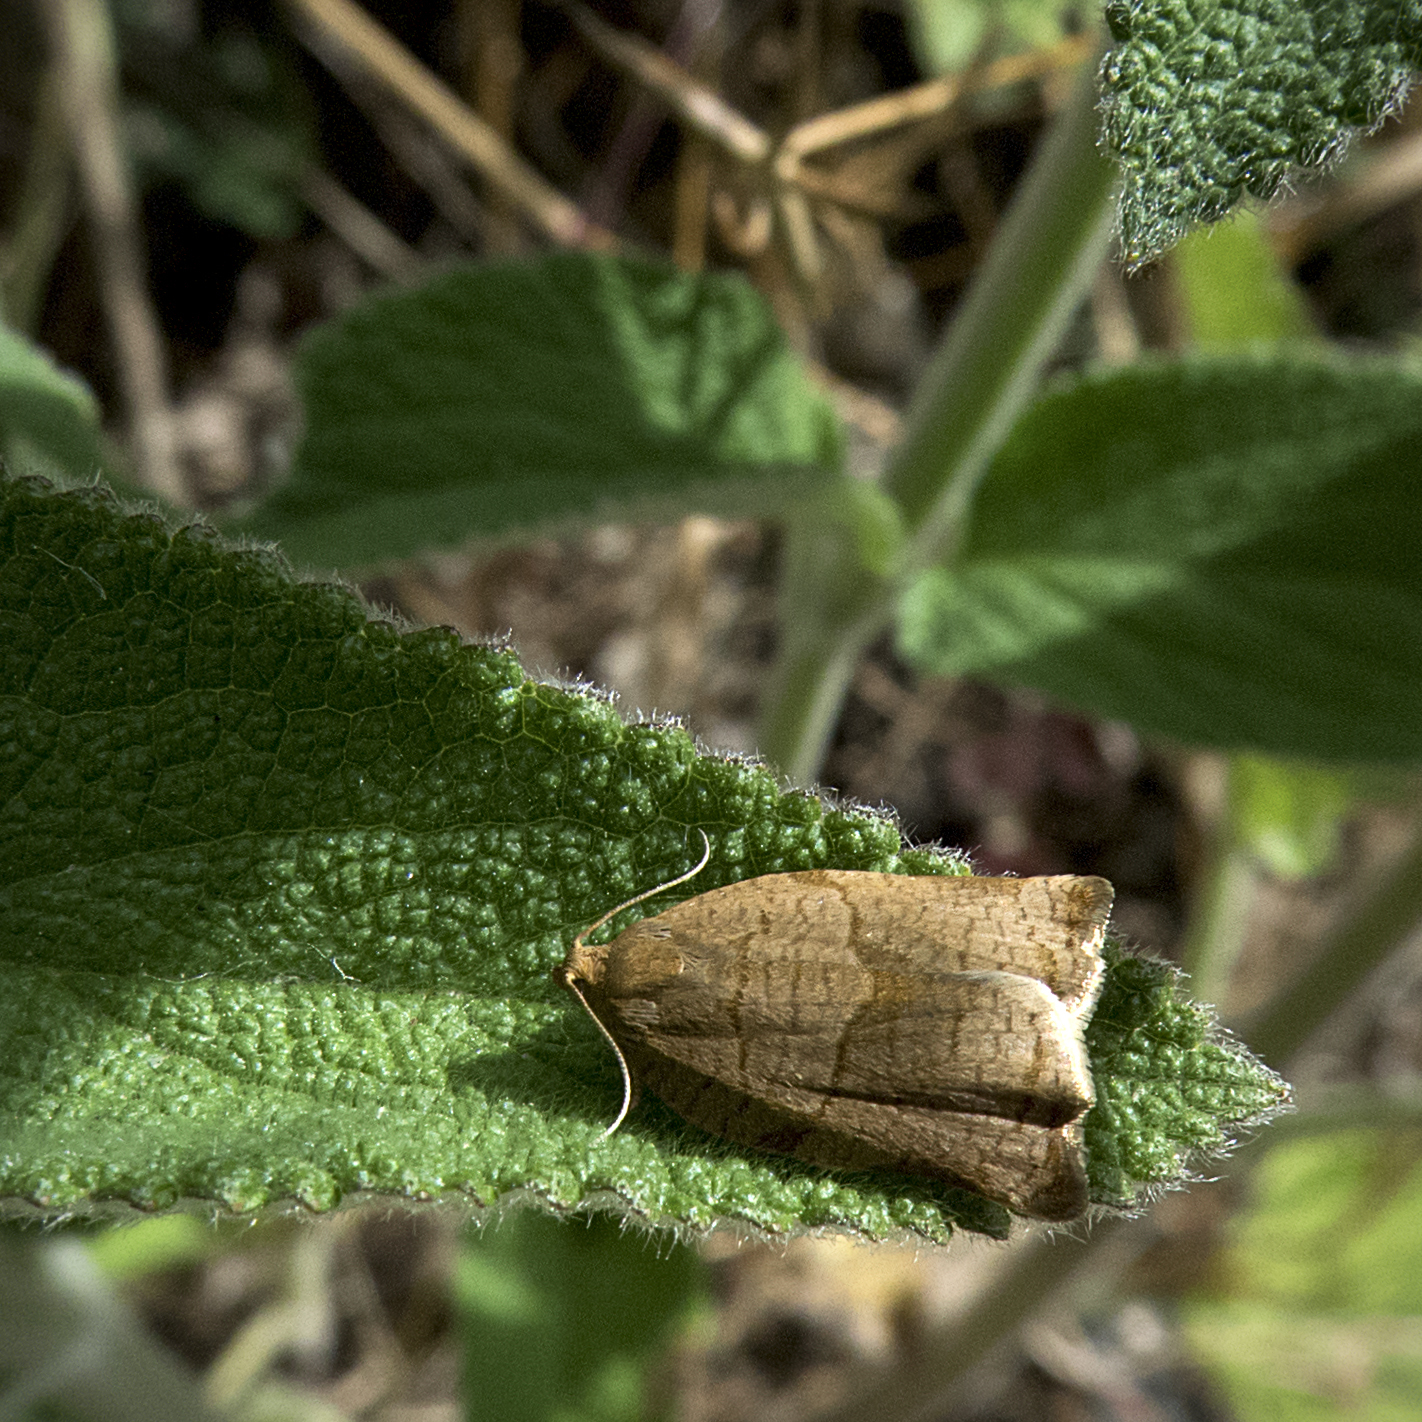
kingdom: Animalia
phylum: Arthropoda
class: Insecta
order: Lepidoptera
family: Tortricidae
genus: Archips
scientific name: Archips podana
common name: Large fruit-tree tortrix
